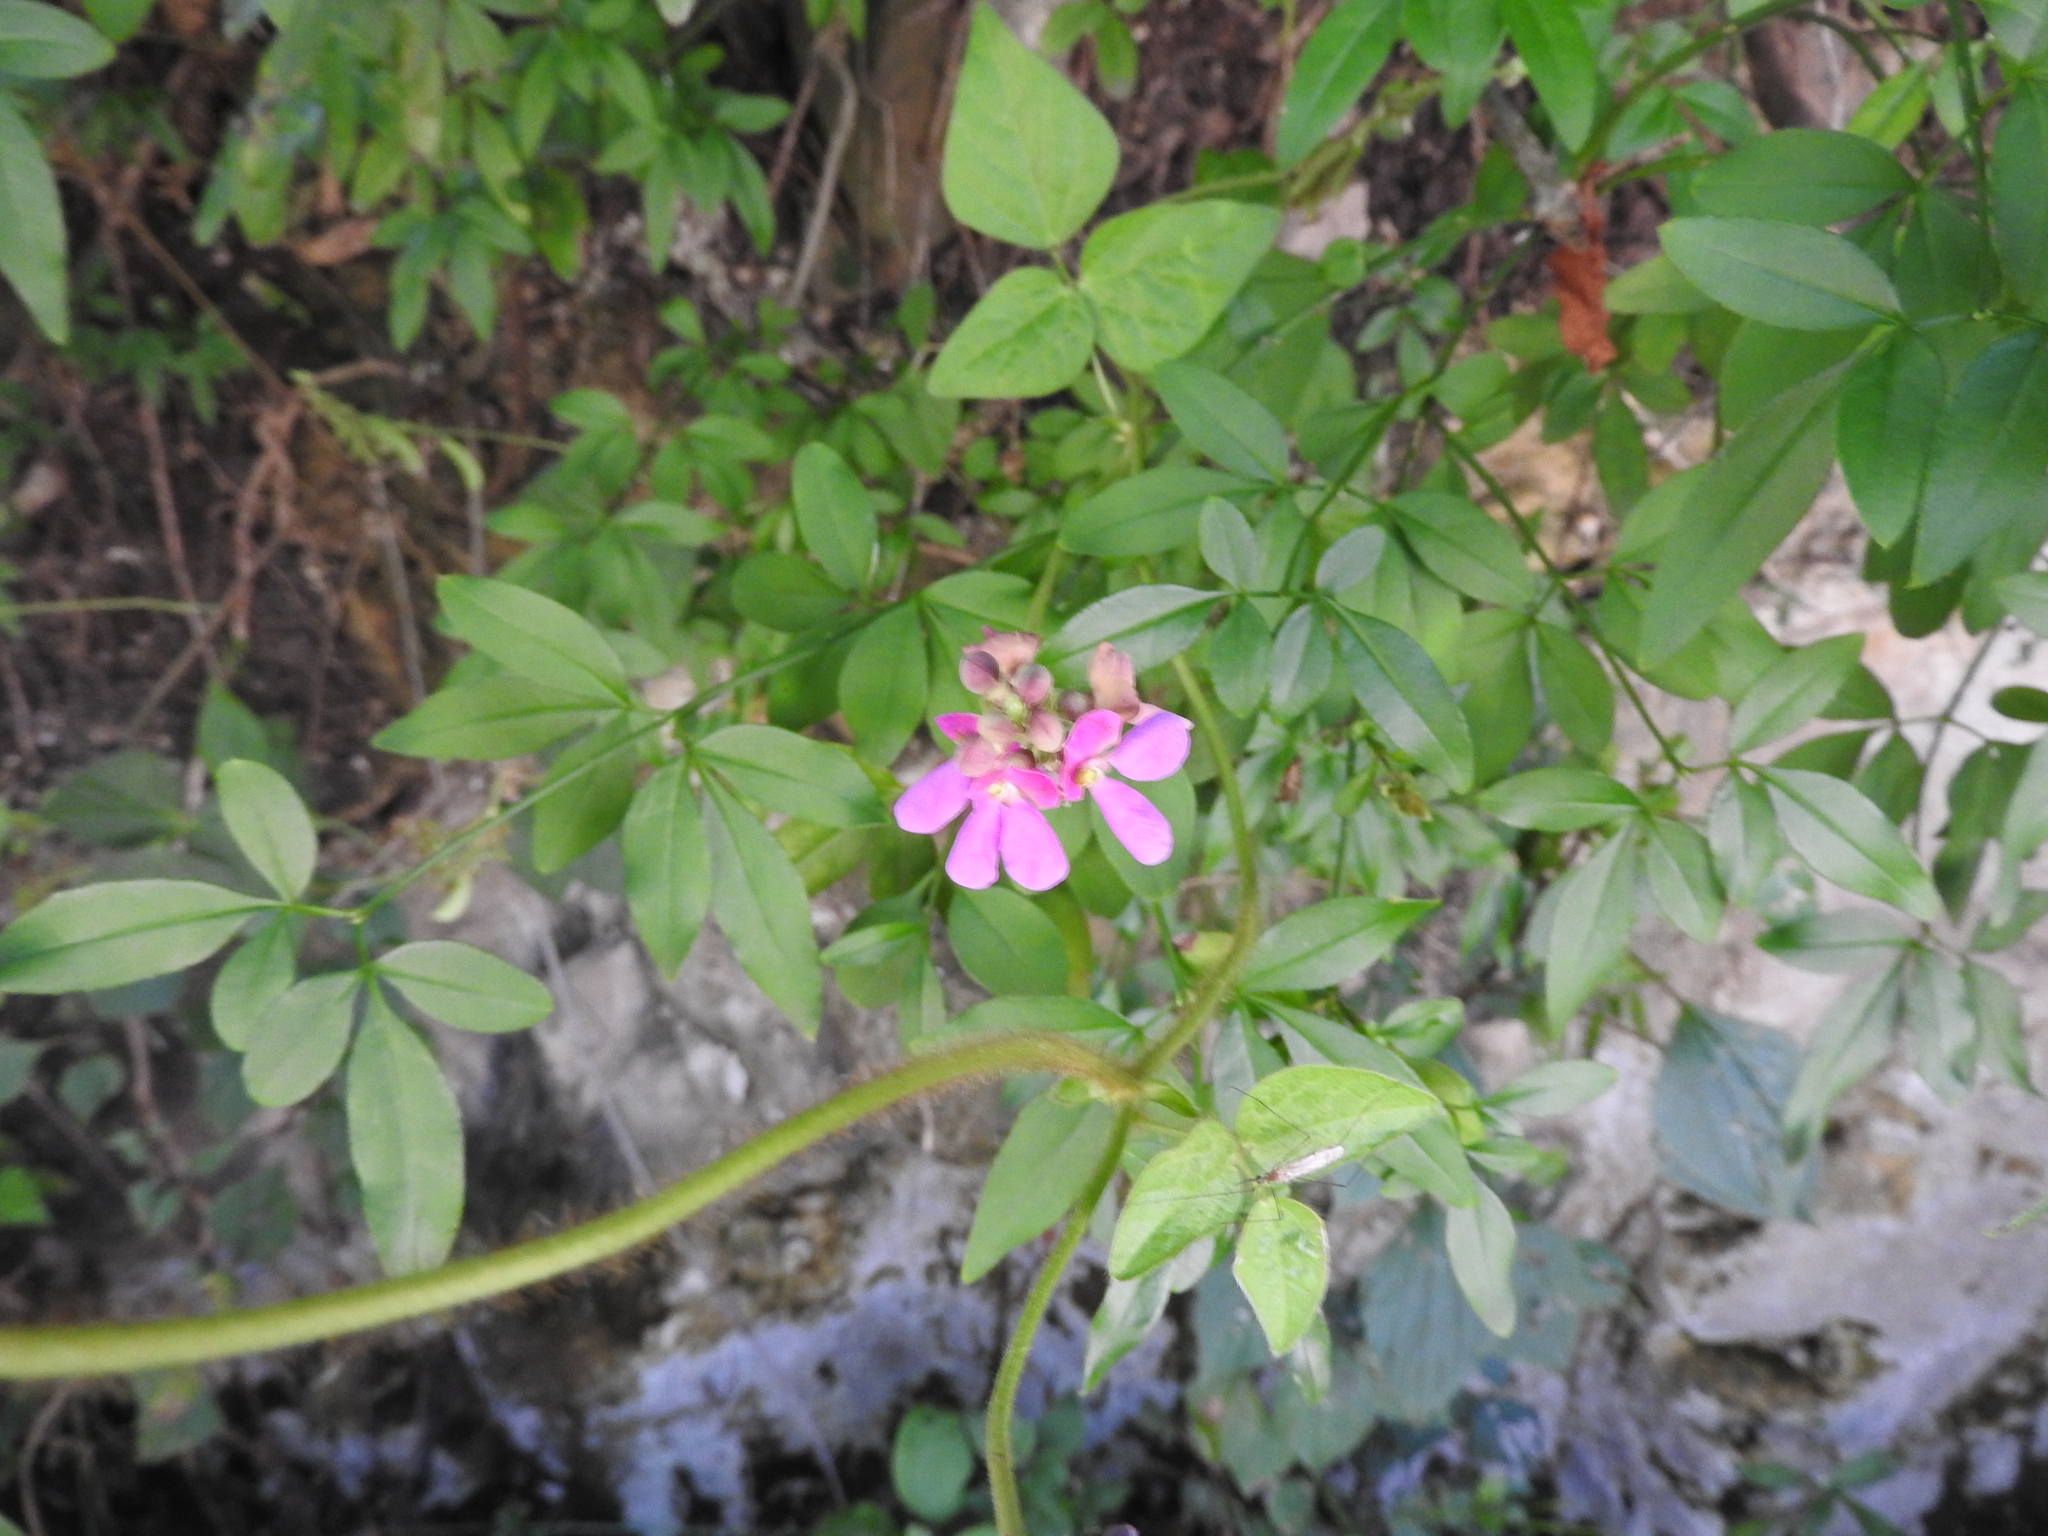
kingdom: Plantae
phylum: Tracheophyta
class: Magnoliopsida
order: Fabales
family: Fabaceae
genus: Phaseolus
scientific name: Phaseolus filiformis
